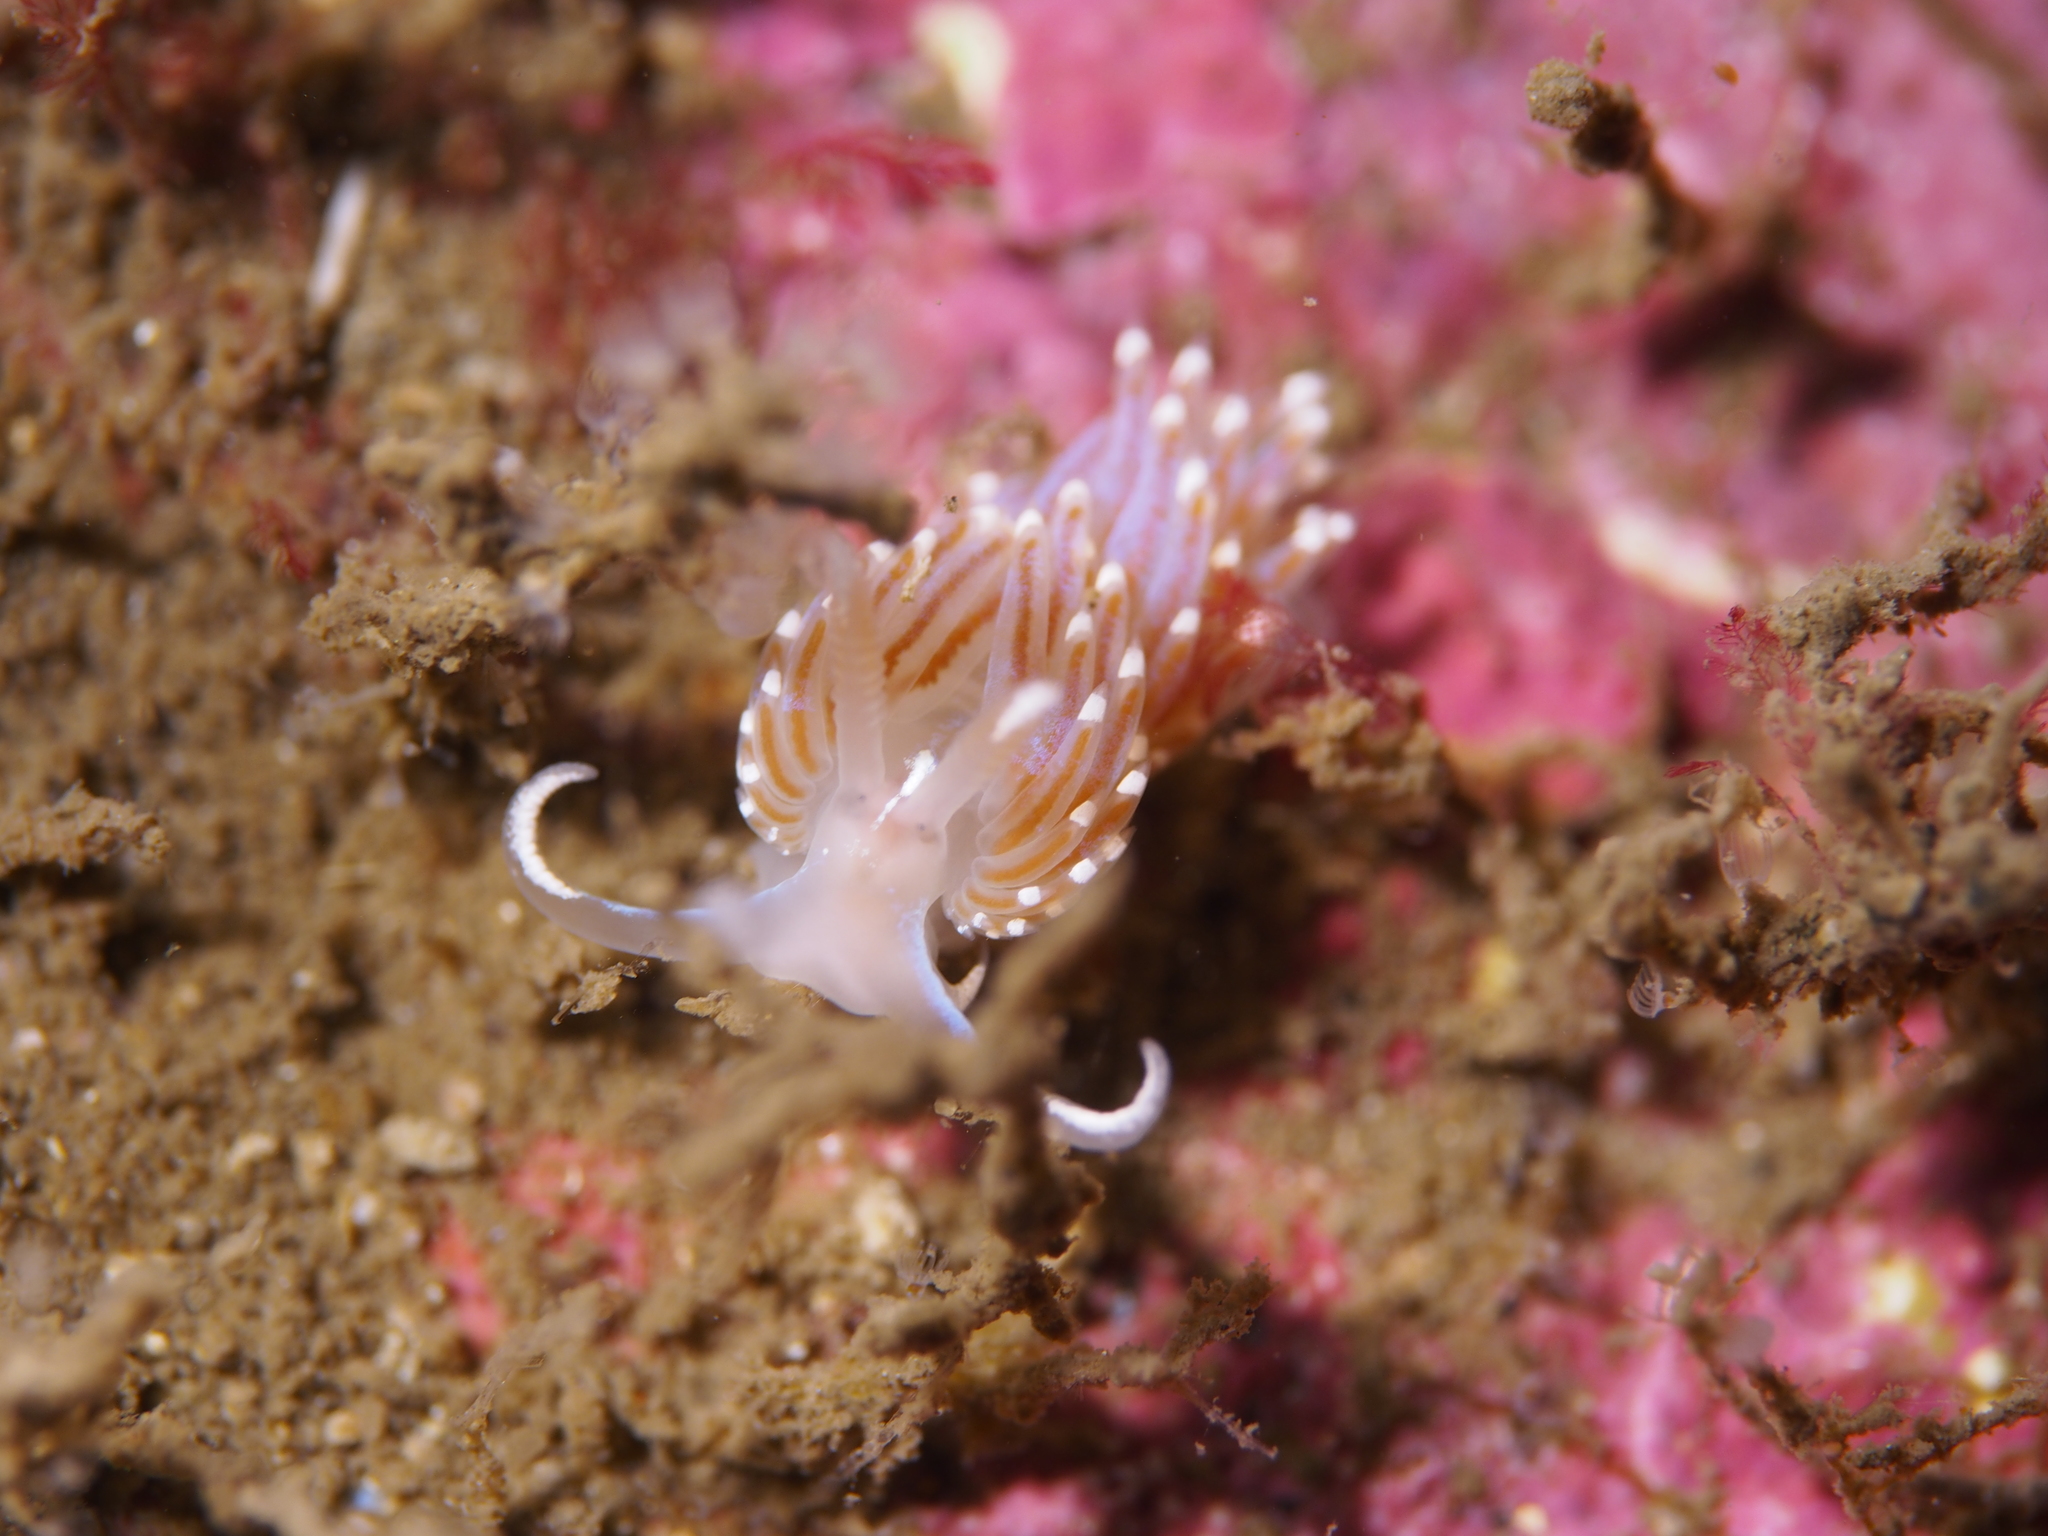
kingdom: Animalia
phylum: Mollusca
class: Gastropoda
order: Nudibranchia
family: Facelinidae
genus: Facelina
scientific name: Facelina auriculata
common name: Slender facelina
